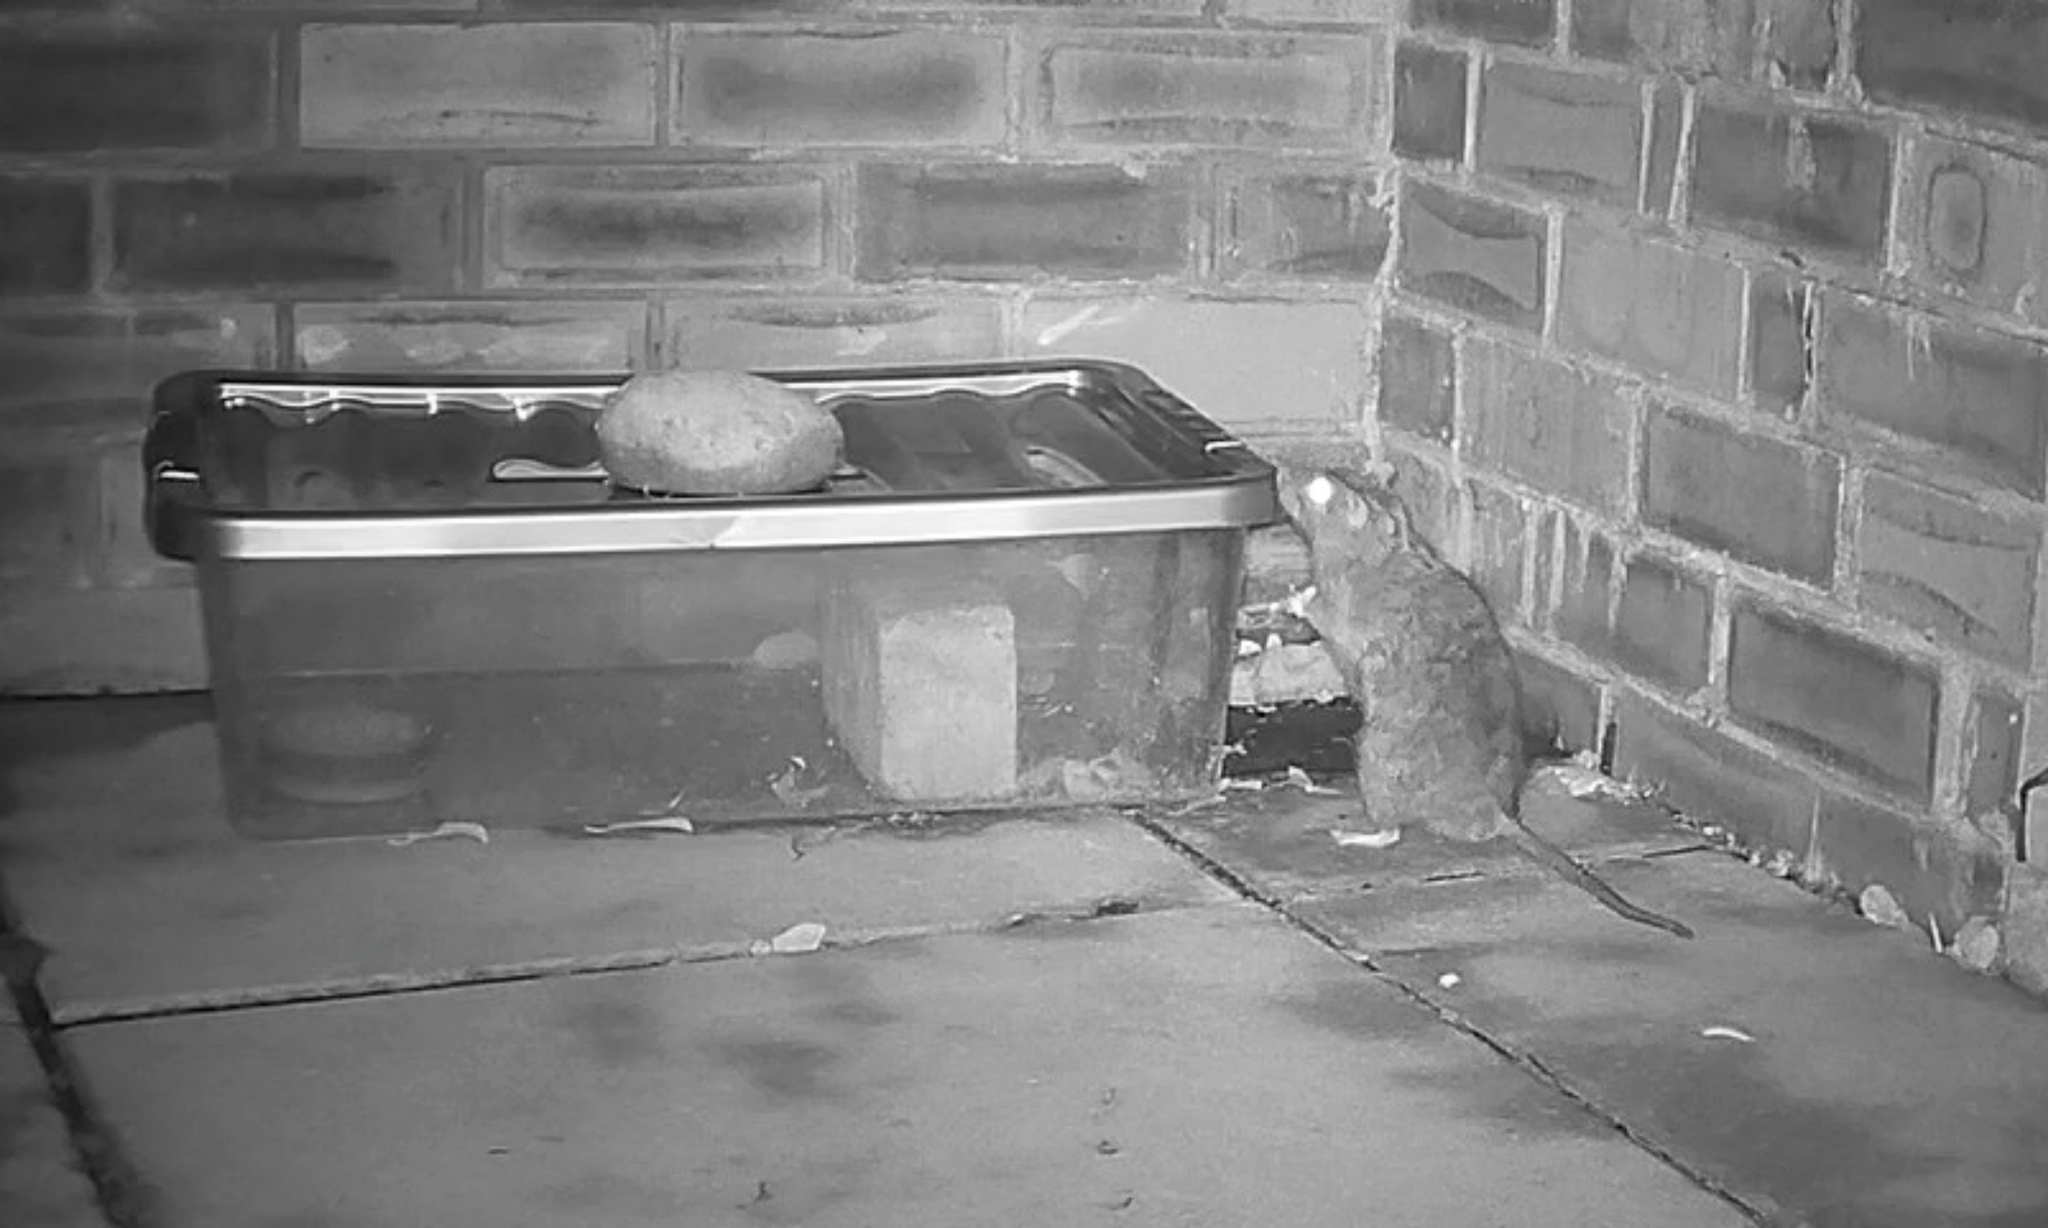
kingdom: Animalia
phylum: Chordata
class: Mammalia
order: Rodentia
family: Muridae
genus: Rattus
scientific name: Rattus norvegicus
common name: Brown rat
